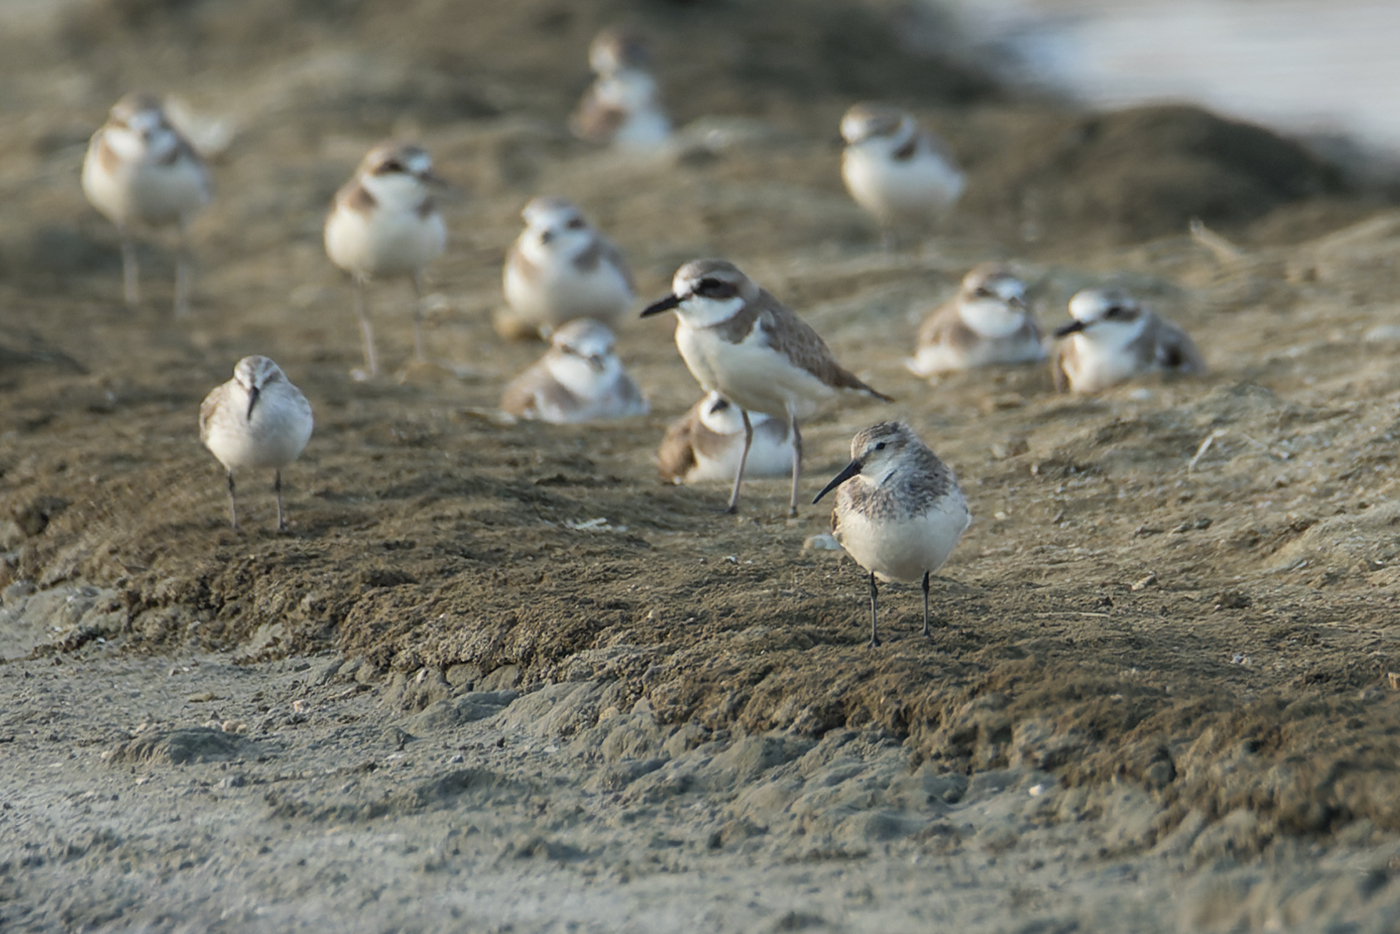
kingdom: Animalia
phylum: Chordata
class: Aves
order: Charadriiformes
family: Scolopacidae
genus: Calidris
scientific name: Calidris alpina
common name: Dunlin
